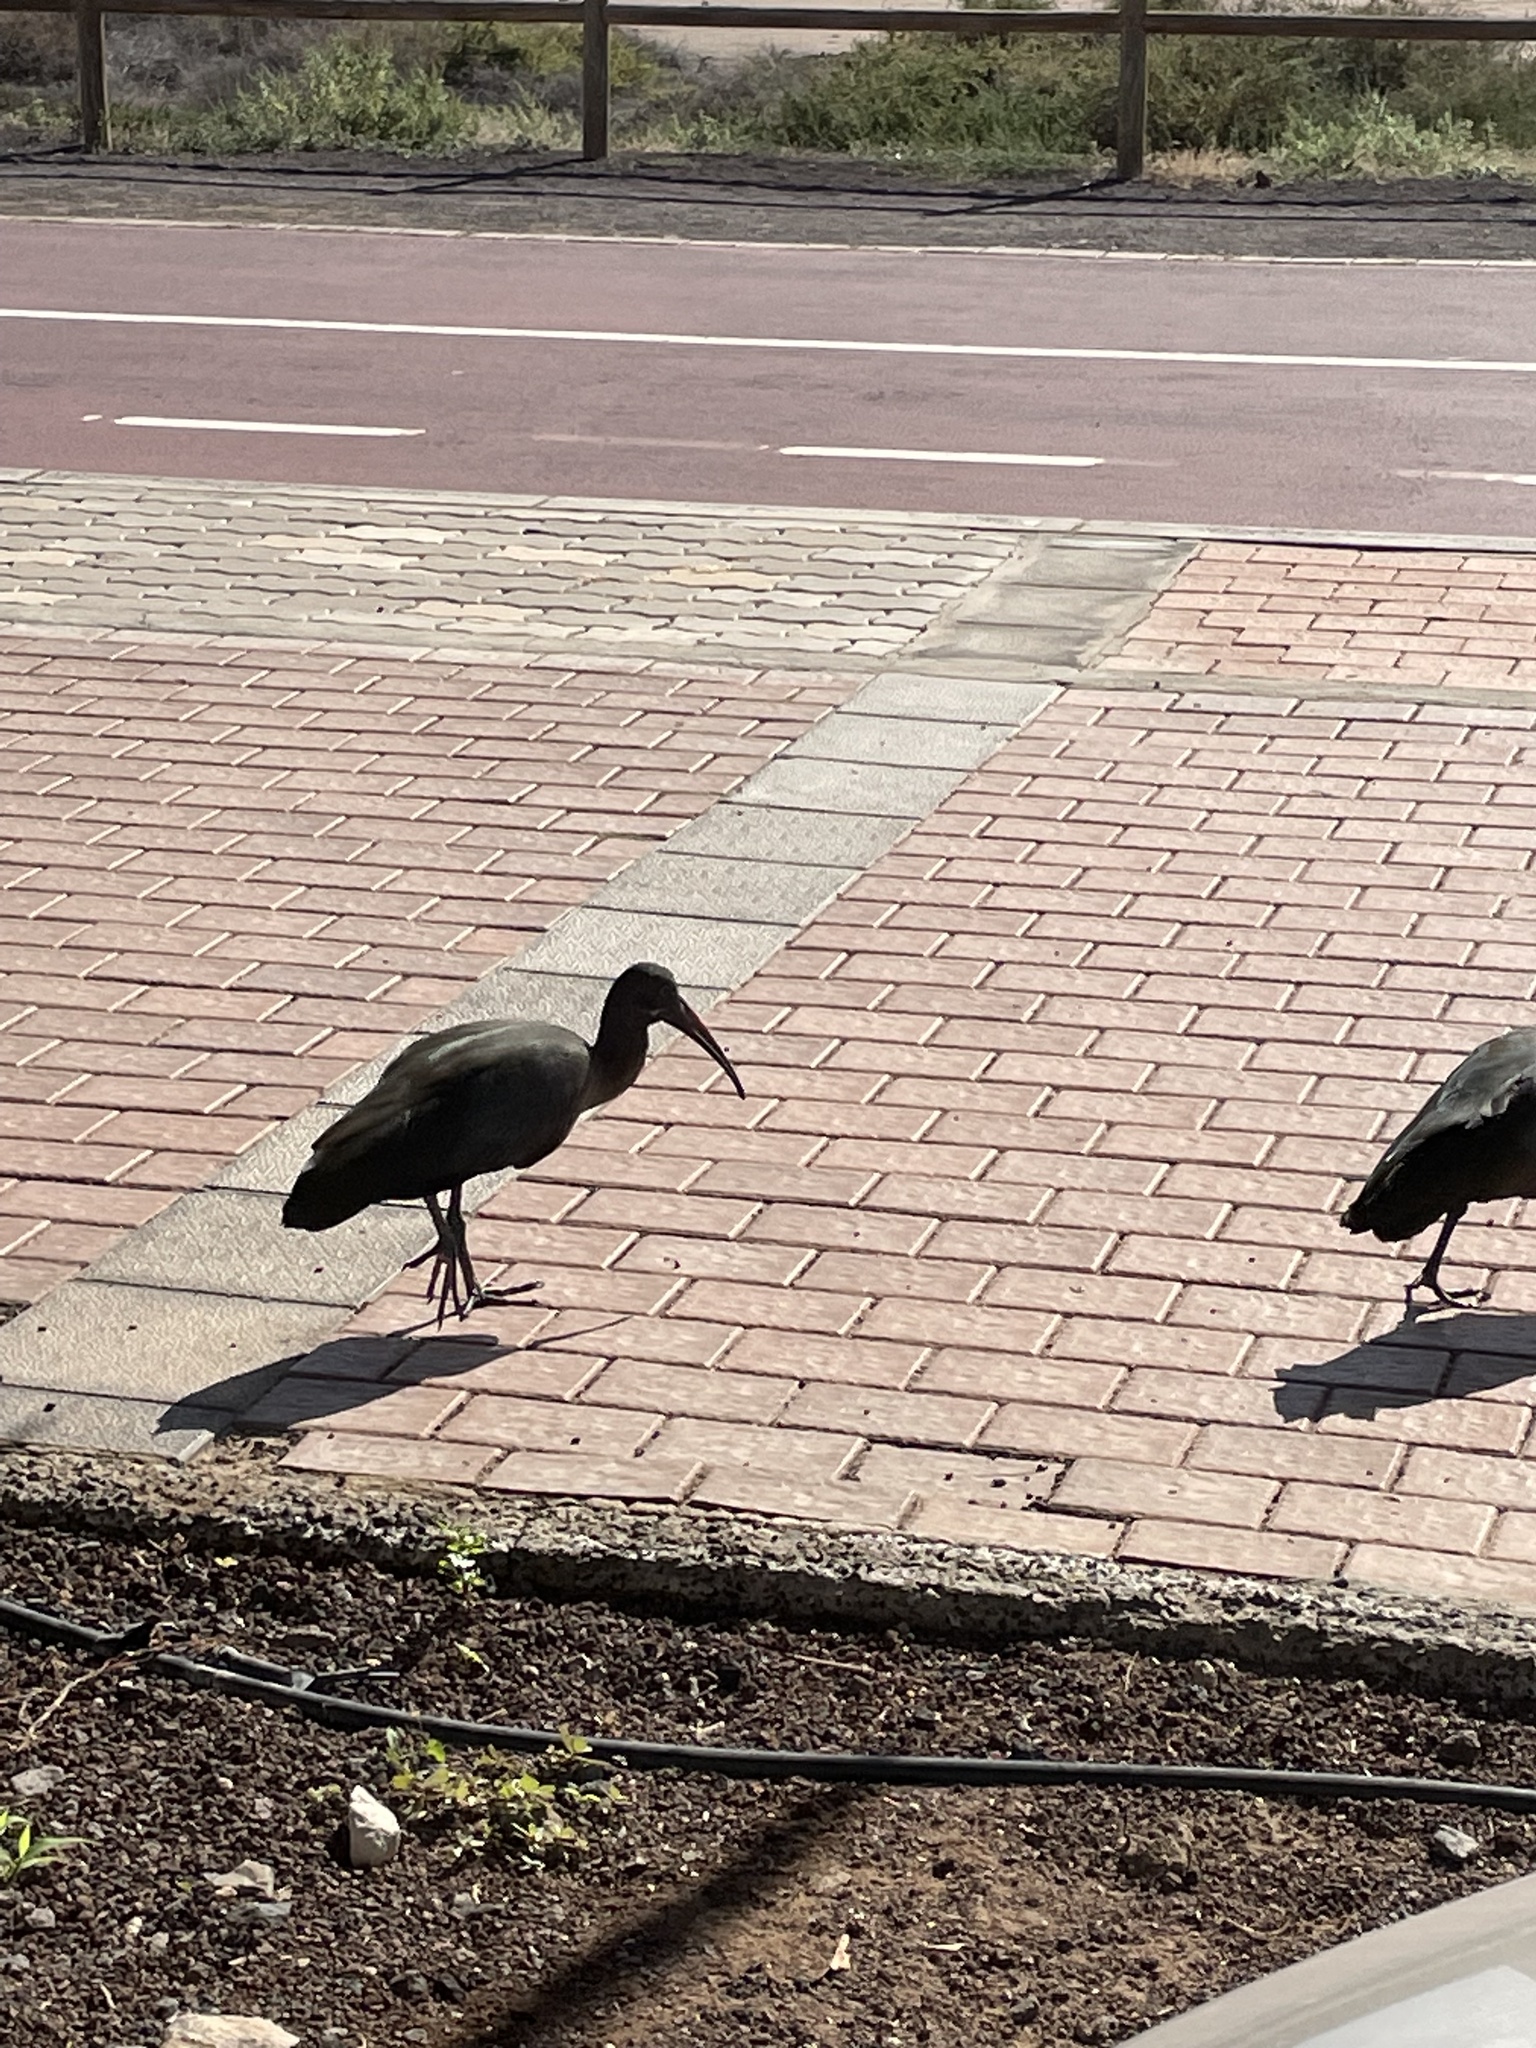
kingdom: Animalia
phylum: Chordata
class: Aves
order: Pelecaniformes
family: Threskiornithidae
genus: Bostrychia
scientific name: Bostrychia hagedash
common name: Hadada ibis
